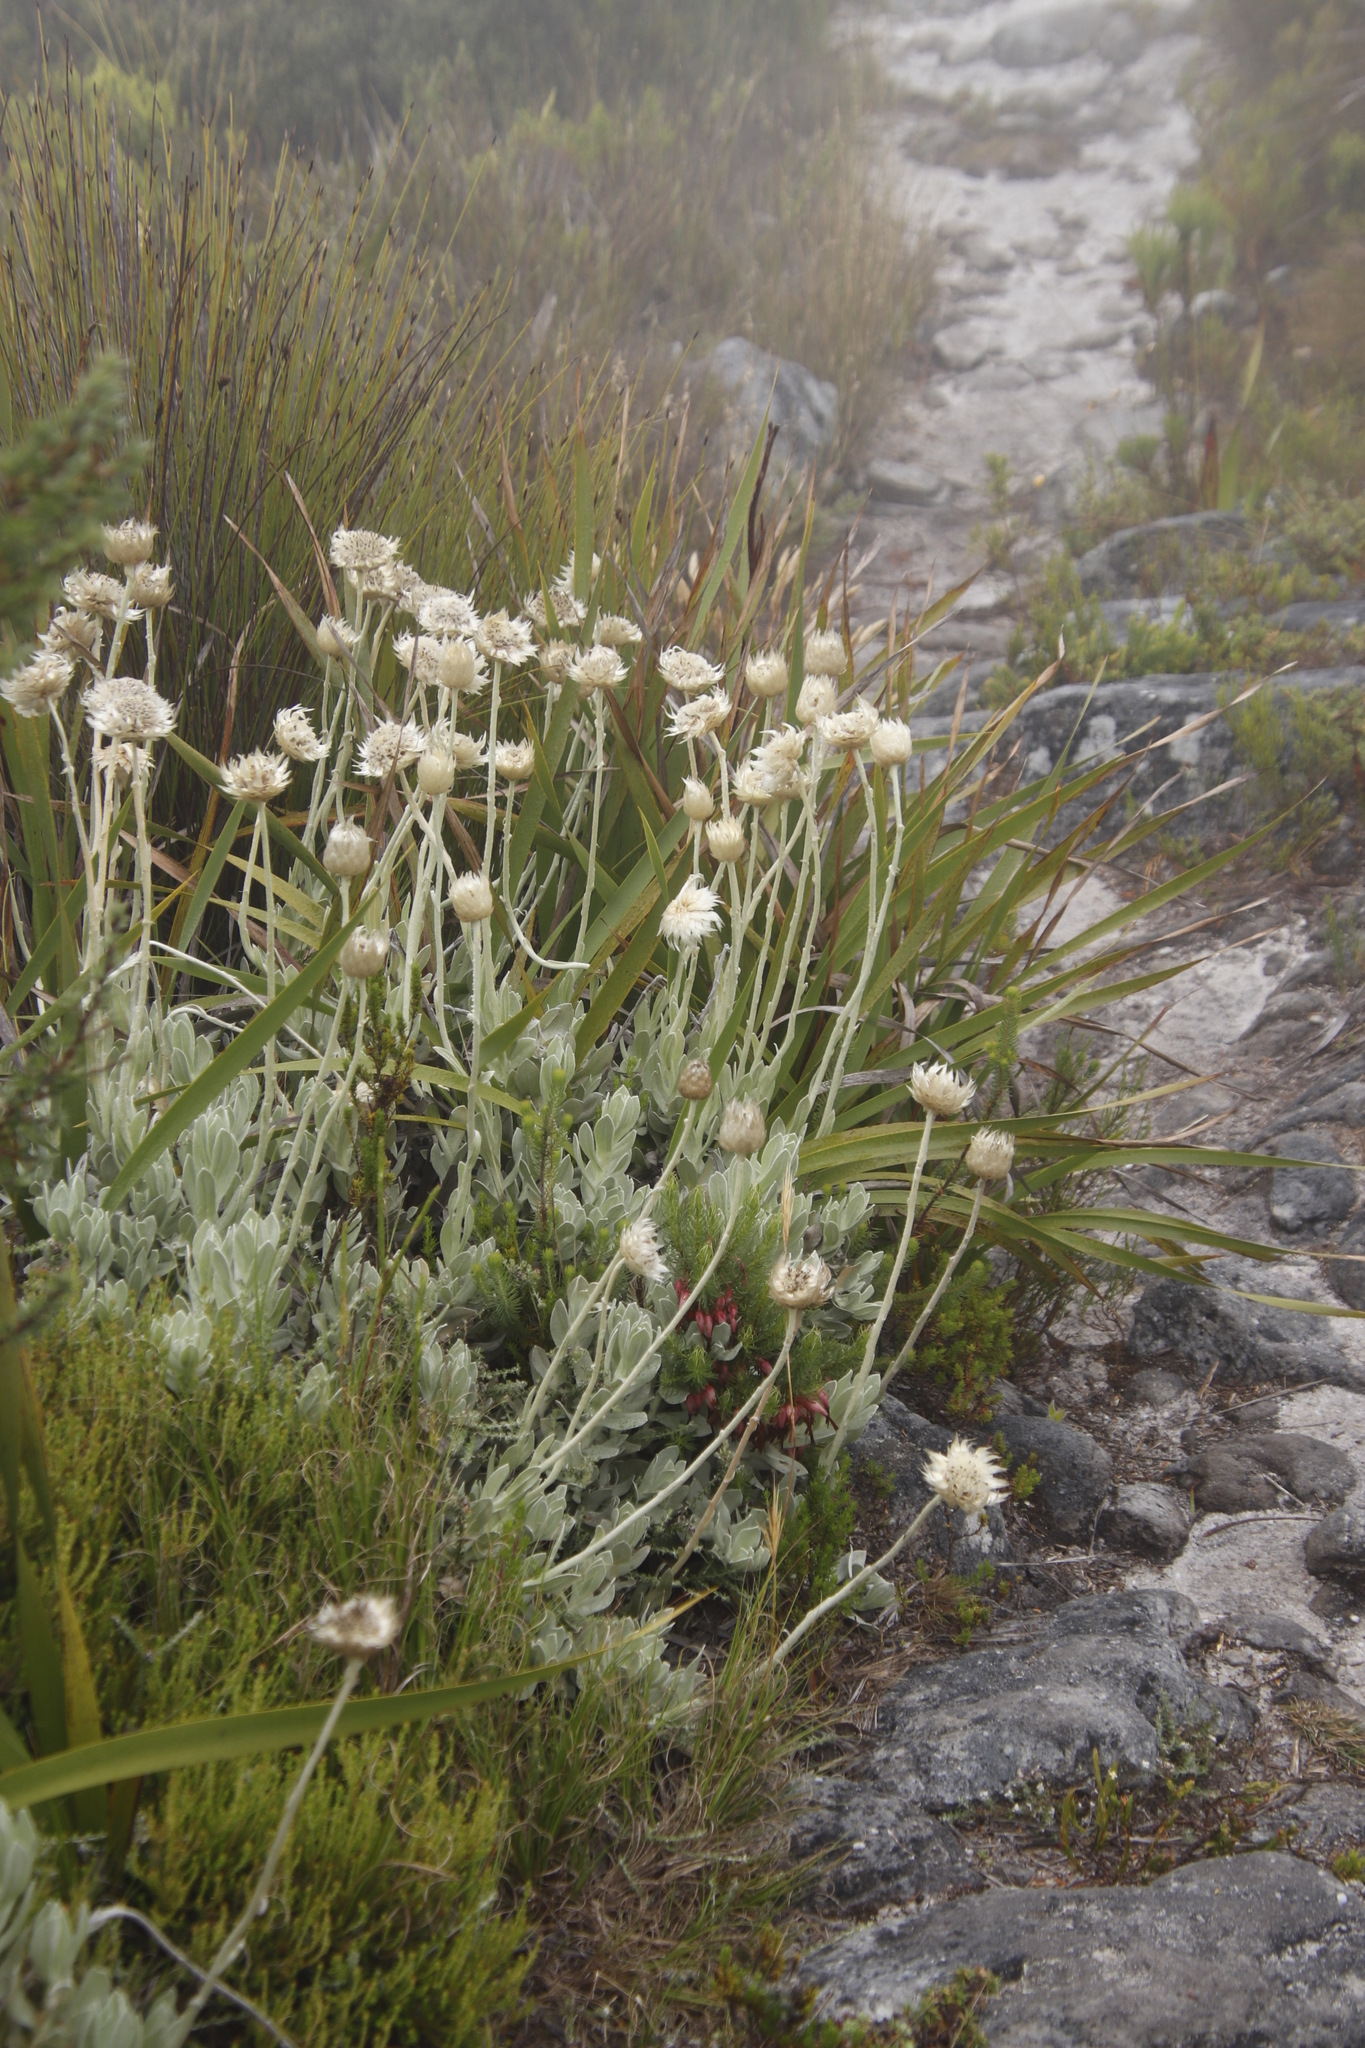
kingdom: Plantae
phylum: Tracheophyta
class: Magnoliopsida
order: Asterales
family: Asteraceae
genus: Syncarpha
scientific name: Syncarpha speciosissima
